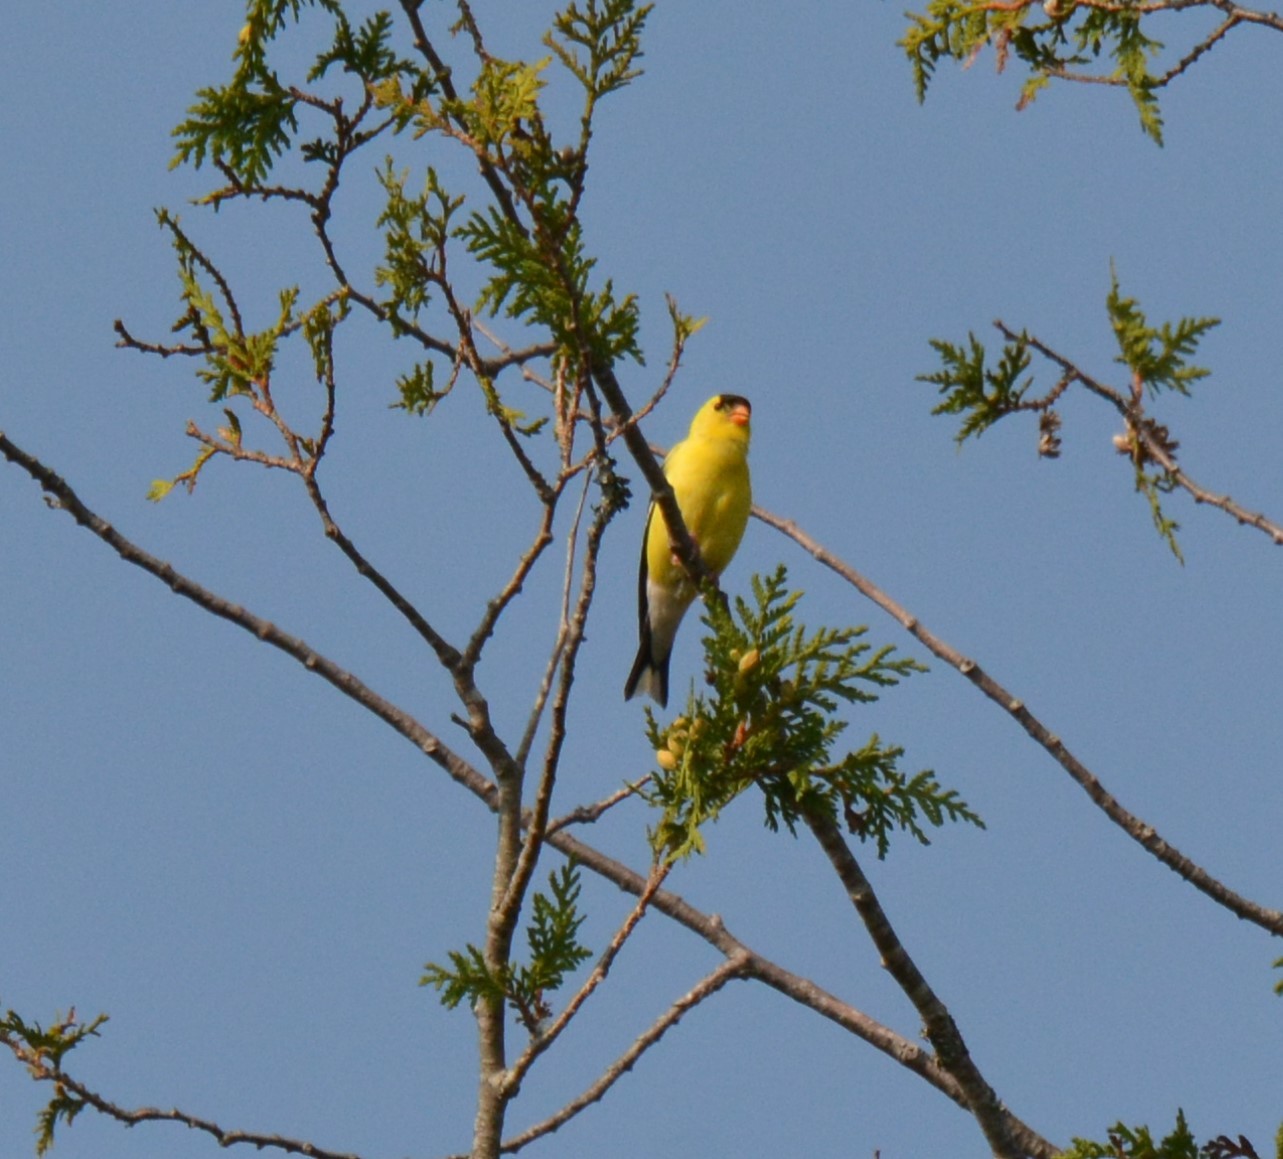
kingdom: Animalia
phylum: Chordata
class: Aves
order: Passeriformes
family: Fringillidae
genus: Spinus
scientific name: Spinus tristis
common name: American goldfinch
